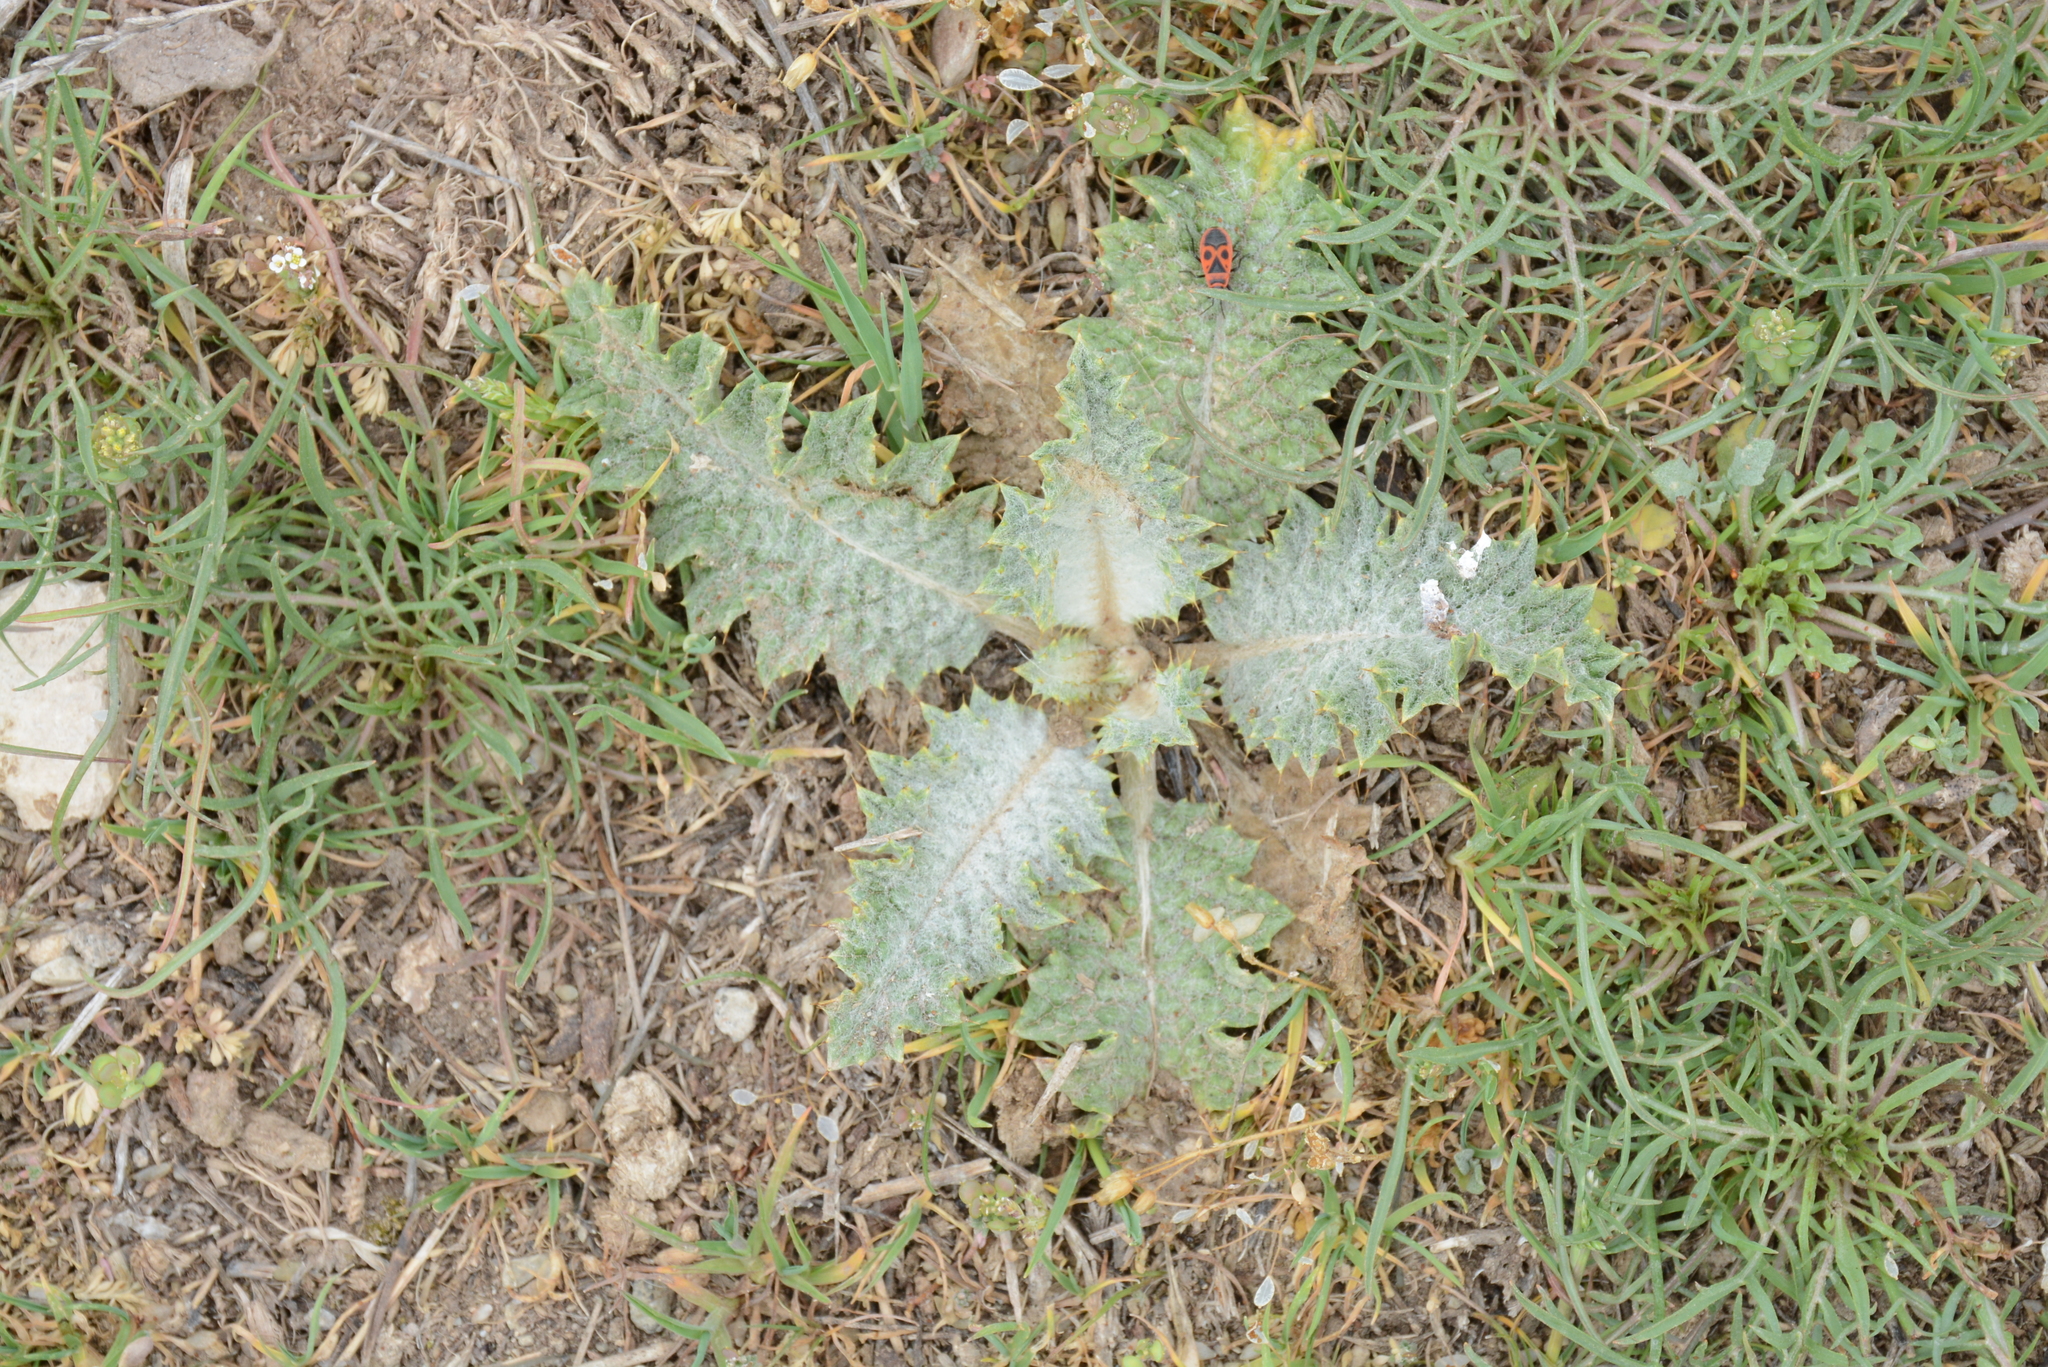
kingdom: Animalia
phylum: Arthropoda
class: Insecta
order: Hemiptera
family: Pyrrhocoridae
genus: Pyrrhocoris
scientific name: Pyrrhocoris apterus
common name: Firebug
